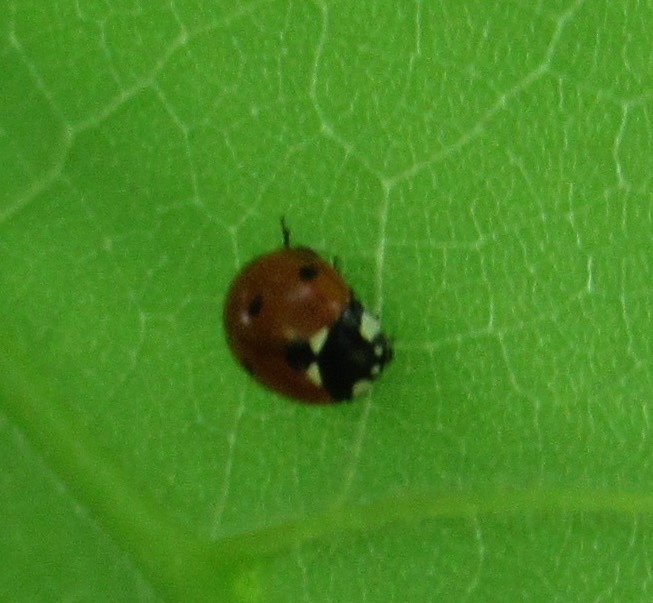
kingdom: Animalia
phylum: Arthropoda
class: Insecta
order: Coleoptera
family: Coccinellidae
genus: Coccinella
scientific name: Coccinella septempunctata
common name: Sevenspotted lady beetle
